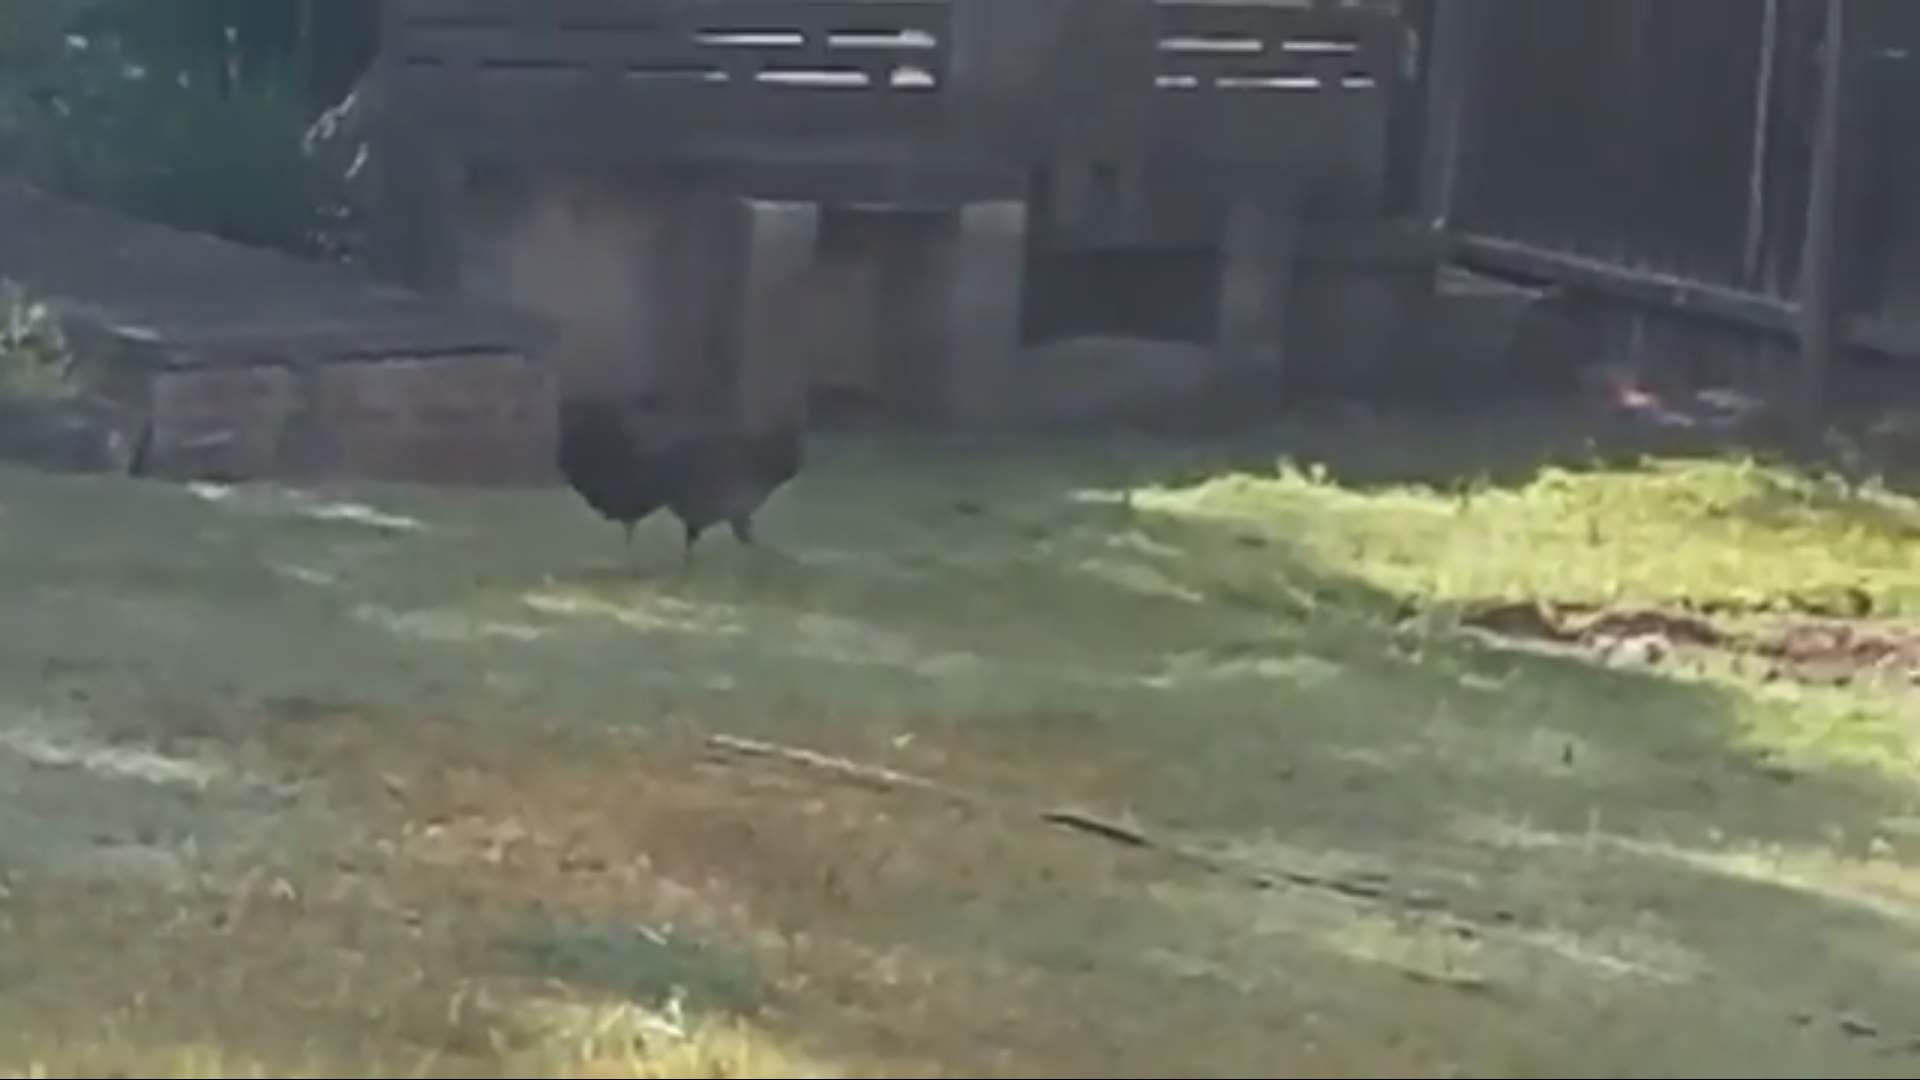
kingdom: Animalia
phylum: Chordata
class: Aves
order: Galliformes
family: Megapodiidae
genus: Alectura
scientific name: Alectura lathami
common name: Australian brushturkey
